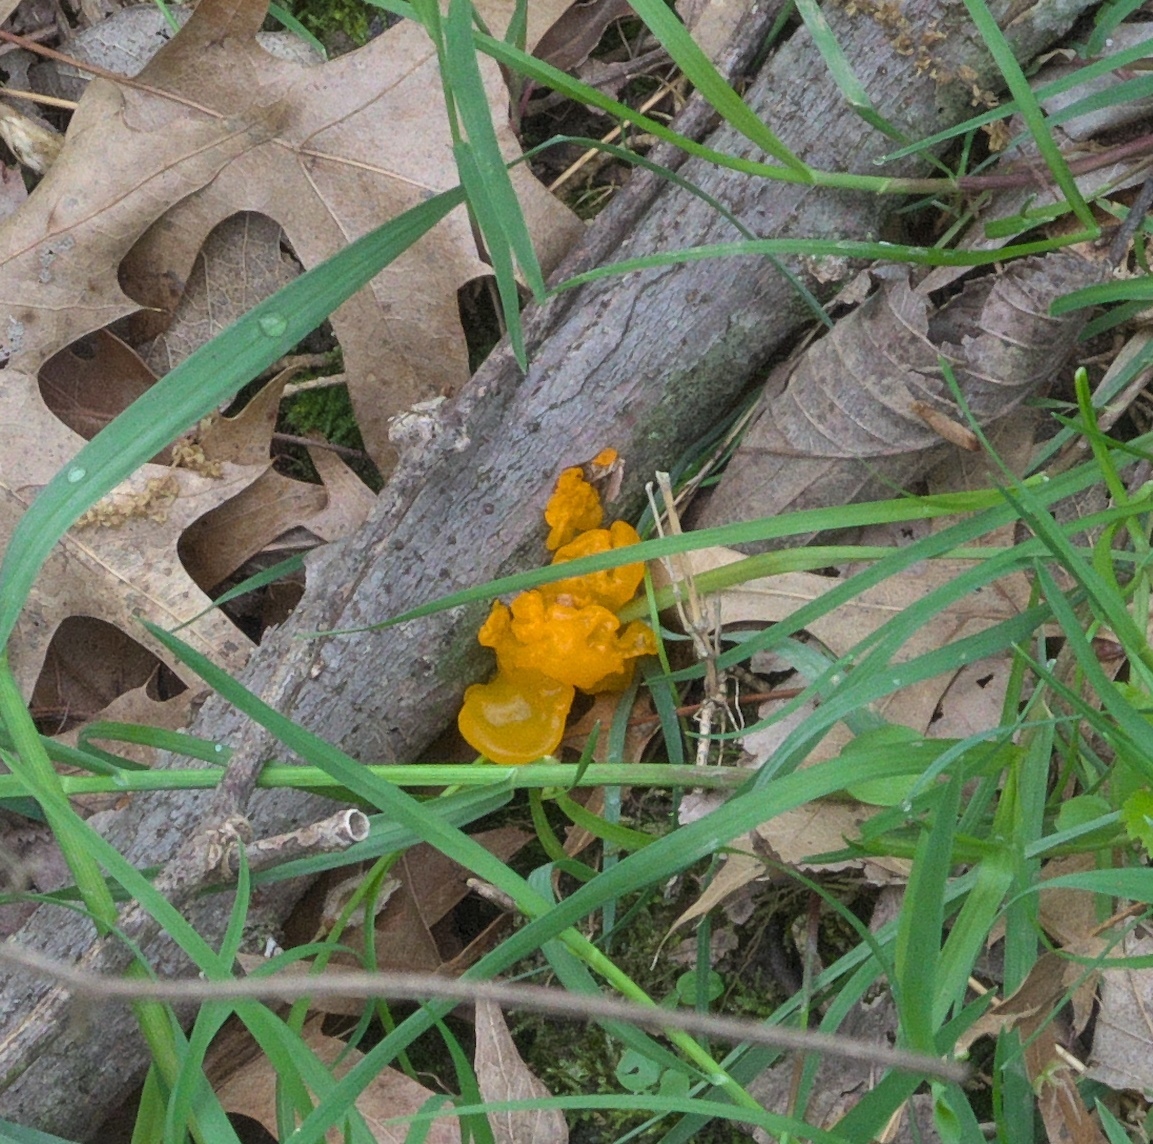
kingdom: Fungi
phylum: Basidiomycota
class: Tremellomycetes
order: Tremellales
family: Tremellaceae
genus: Tremella
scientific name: Tremella mesenterica
